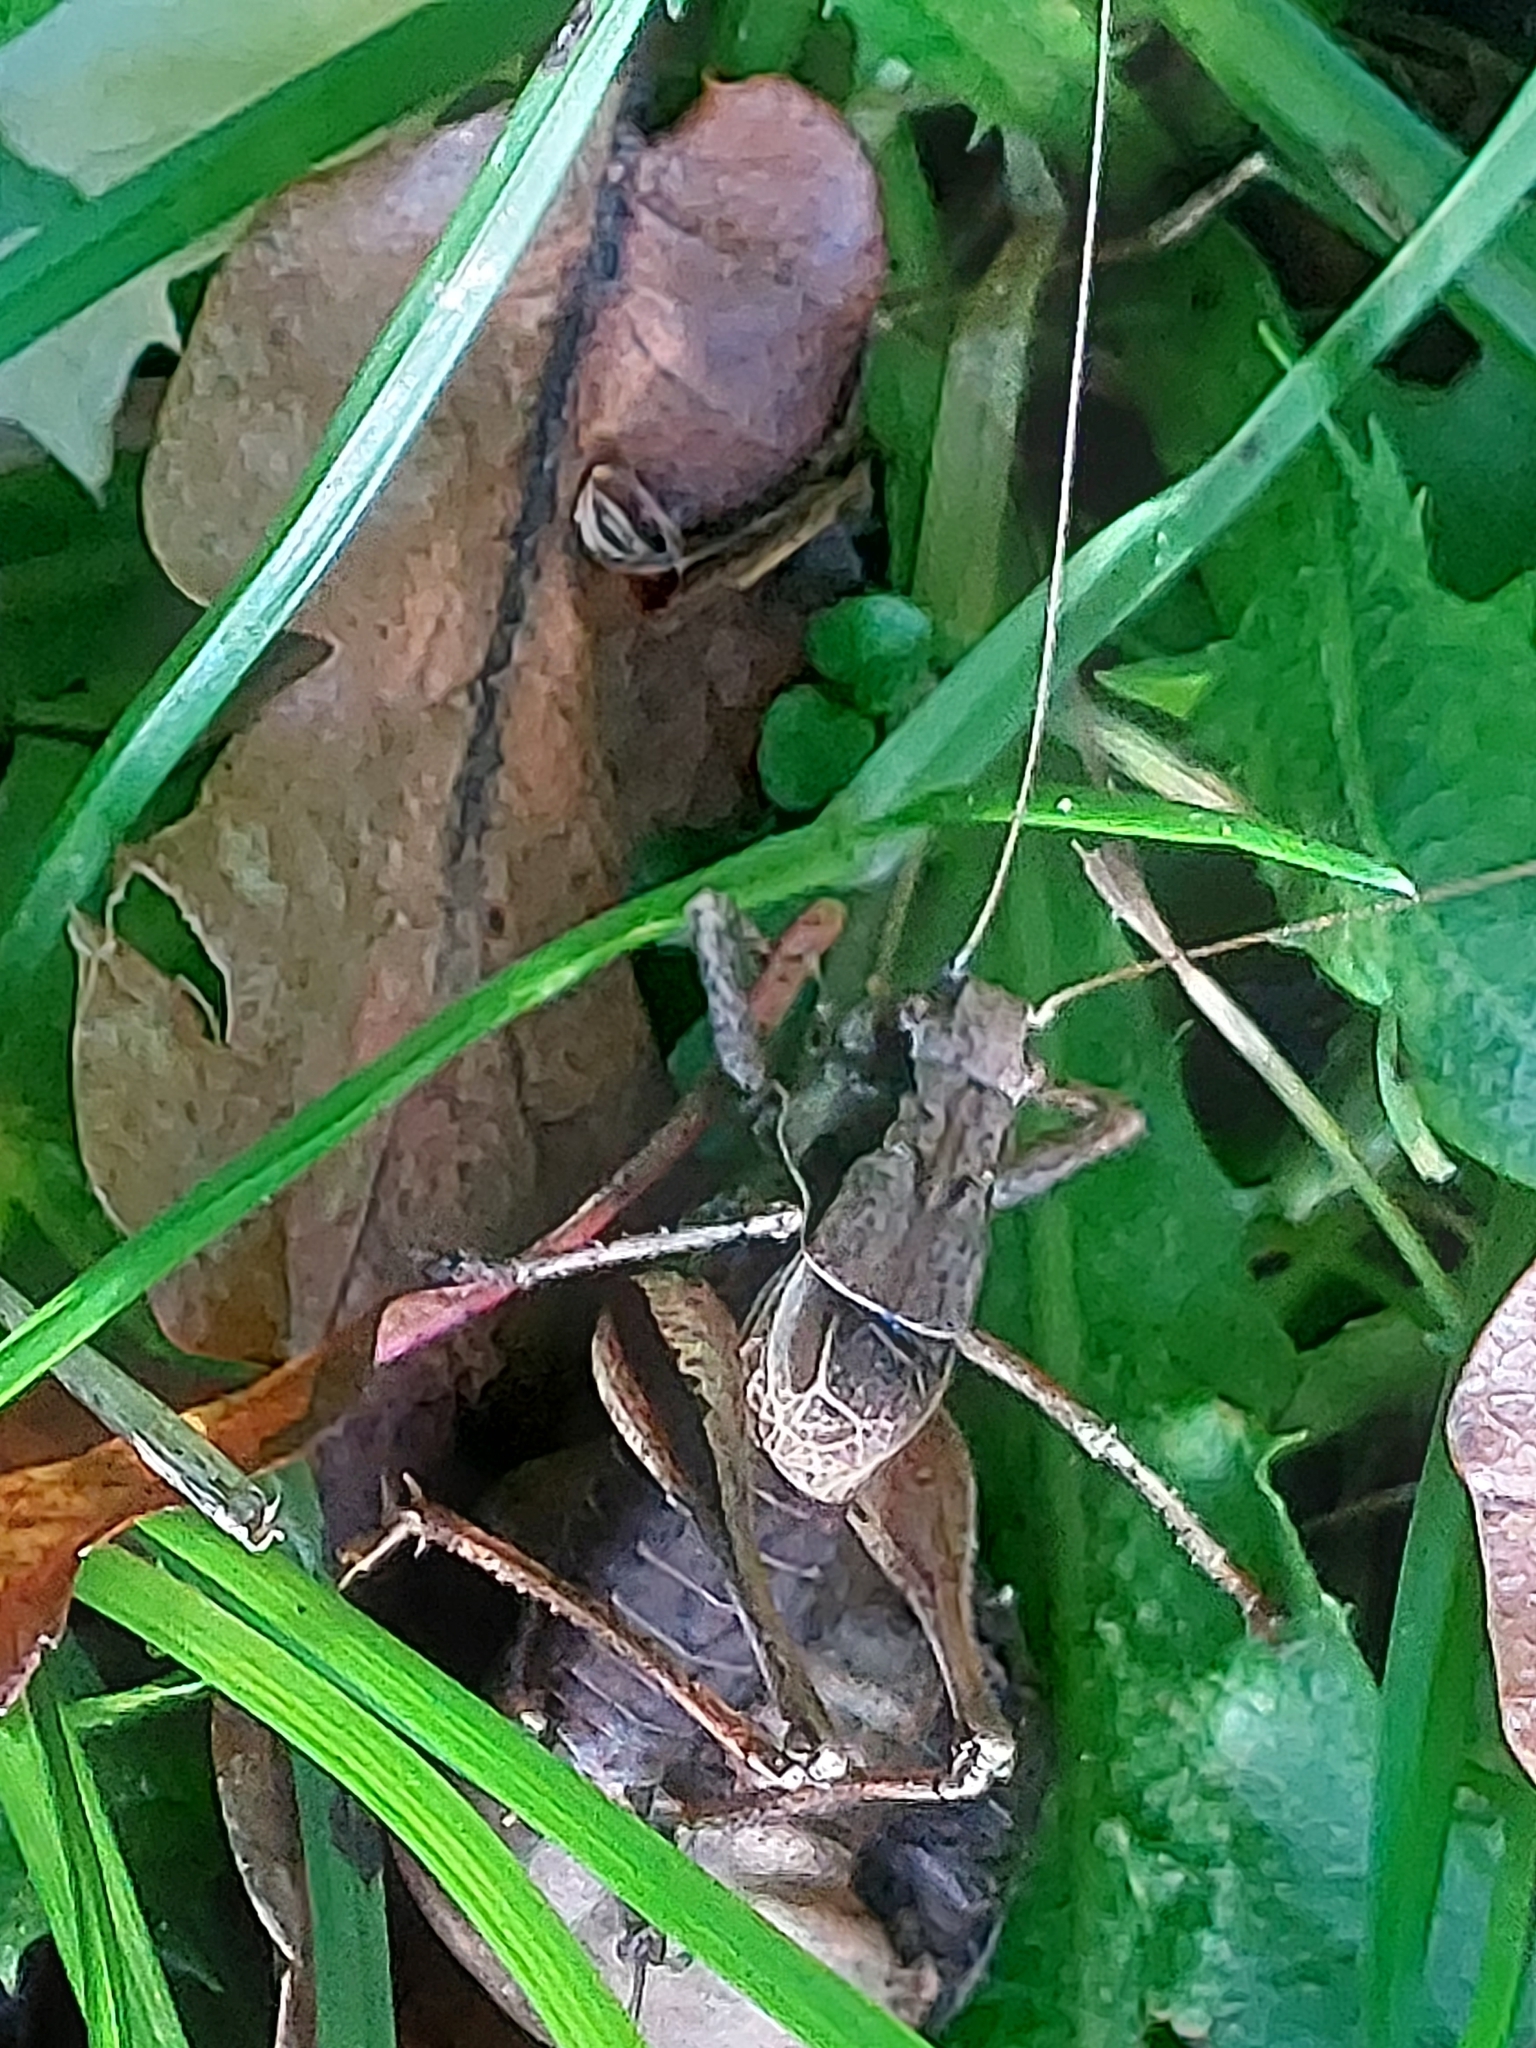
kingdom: Animalia
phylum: Arthropoda
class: Insecta
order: Orthoptera
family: Tettigoniidae
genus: Pholidoptera
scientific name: Pholidoptera griseoaptera
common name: Dark bush-cricket
